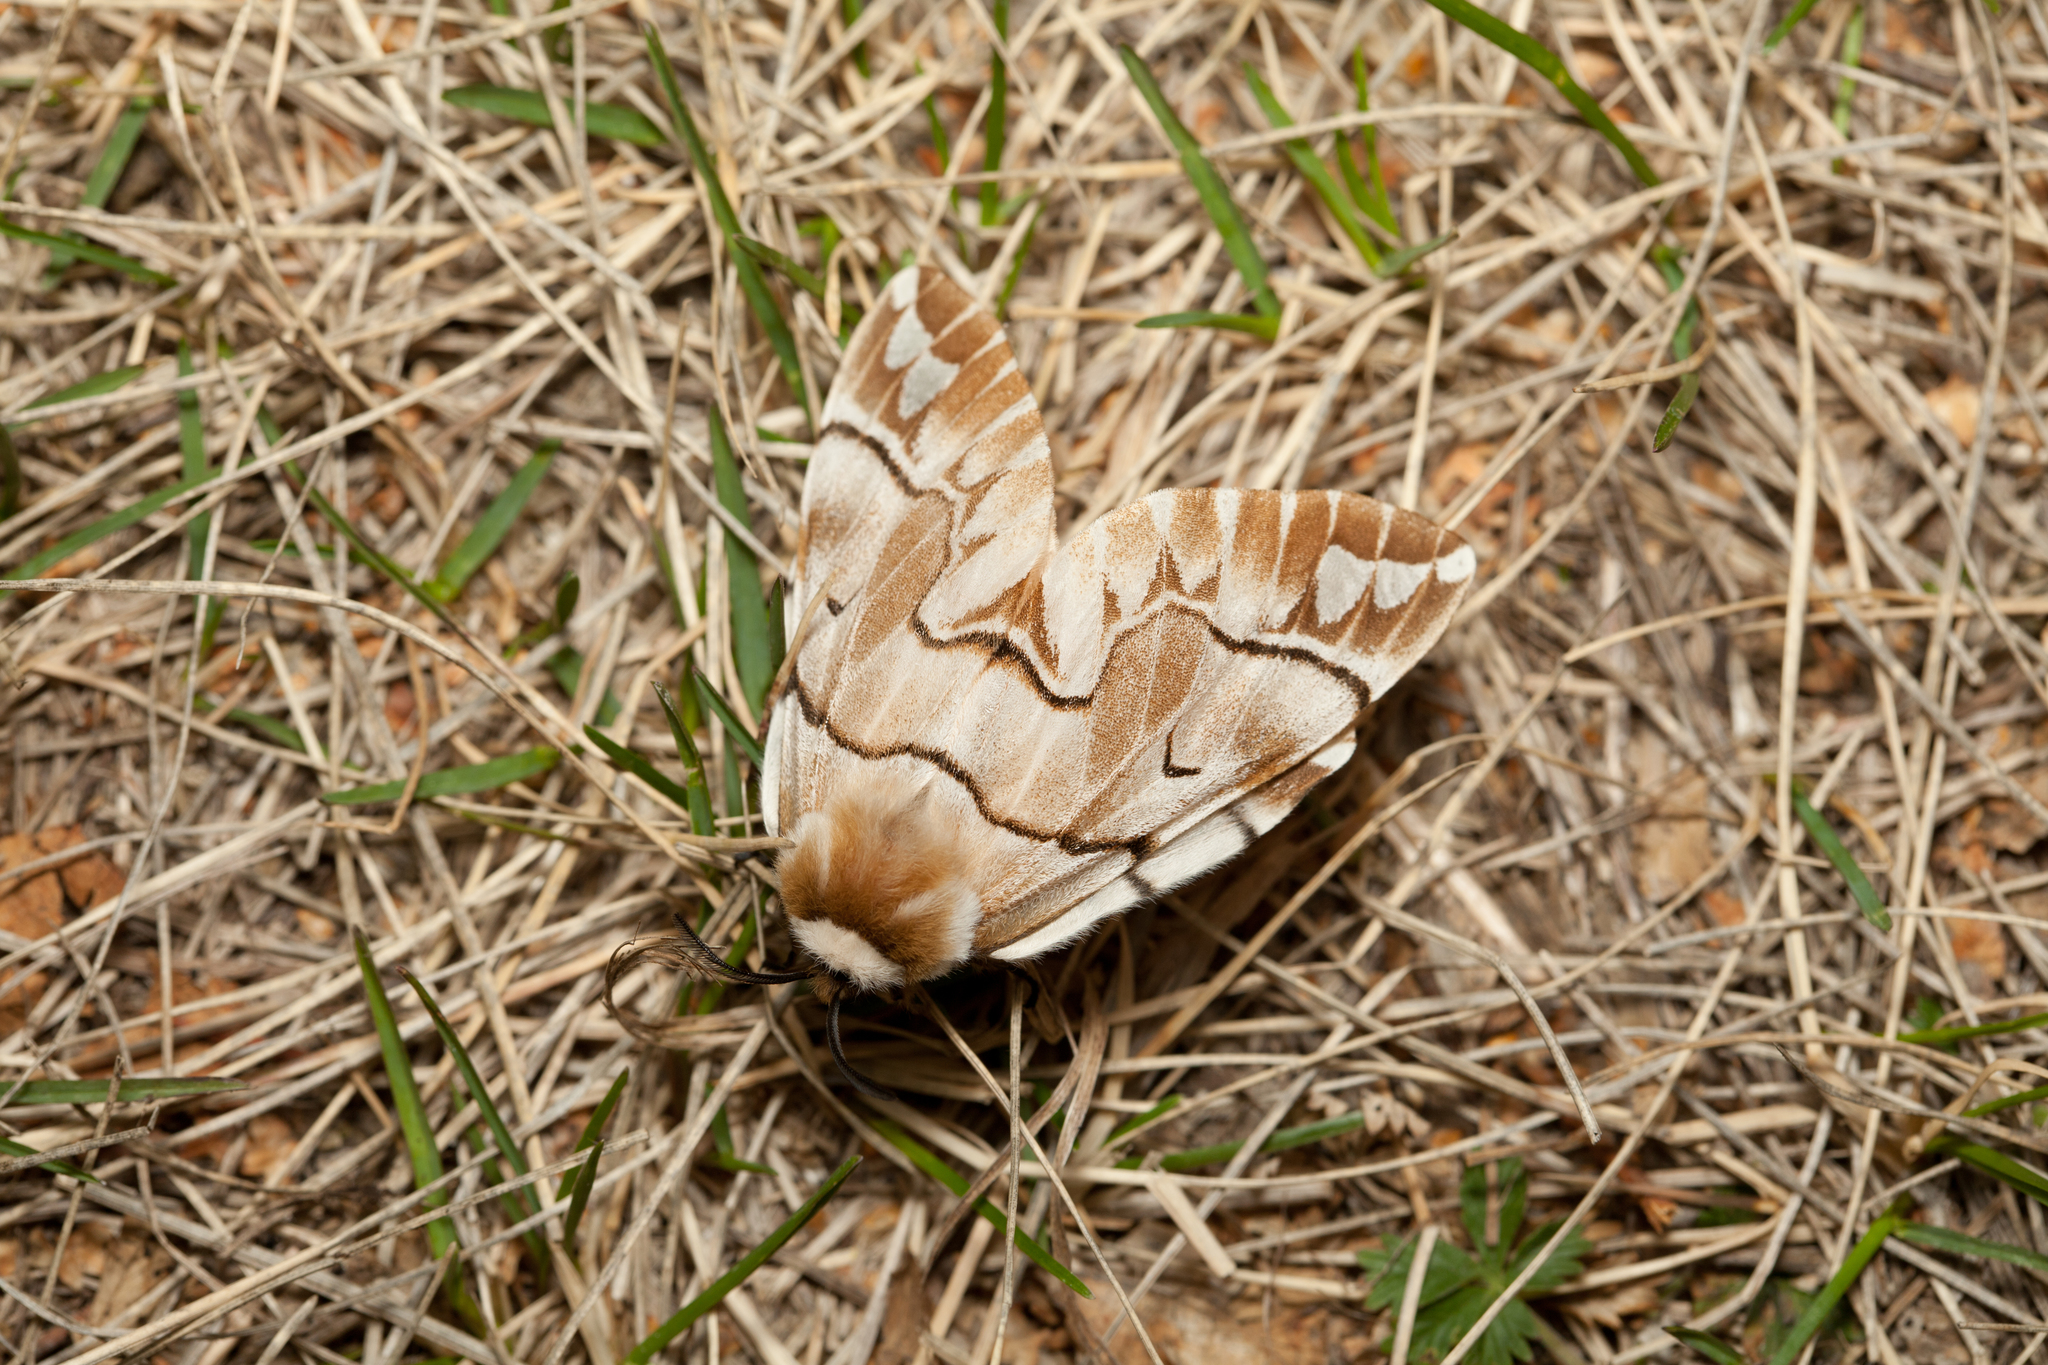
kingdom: Animalia
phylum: Arthropoda
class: Insecta
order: Lepidoptera
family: Endromidae
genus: Endromis
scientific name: Endromis versicolora
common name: Kentish glory
